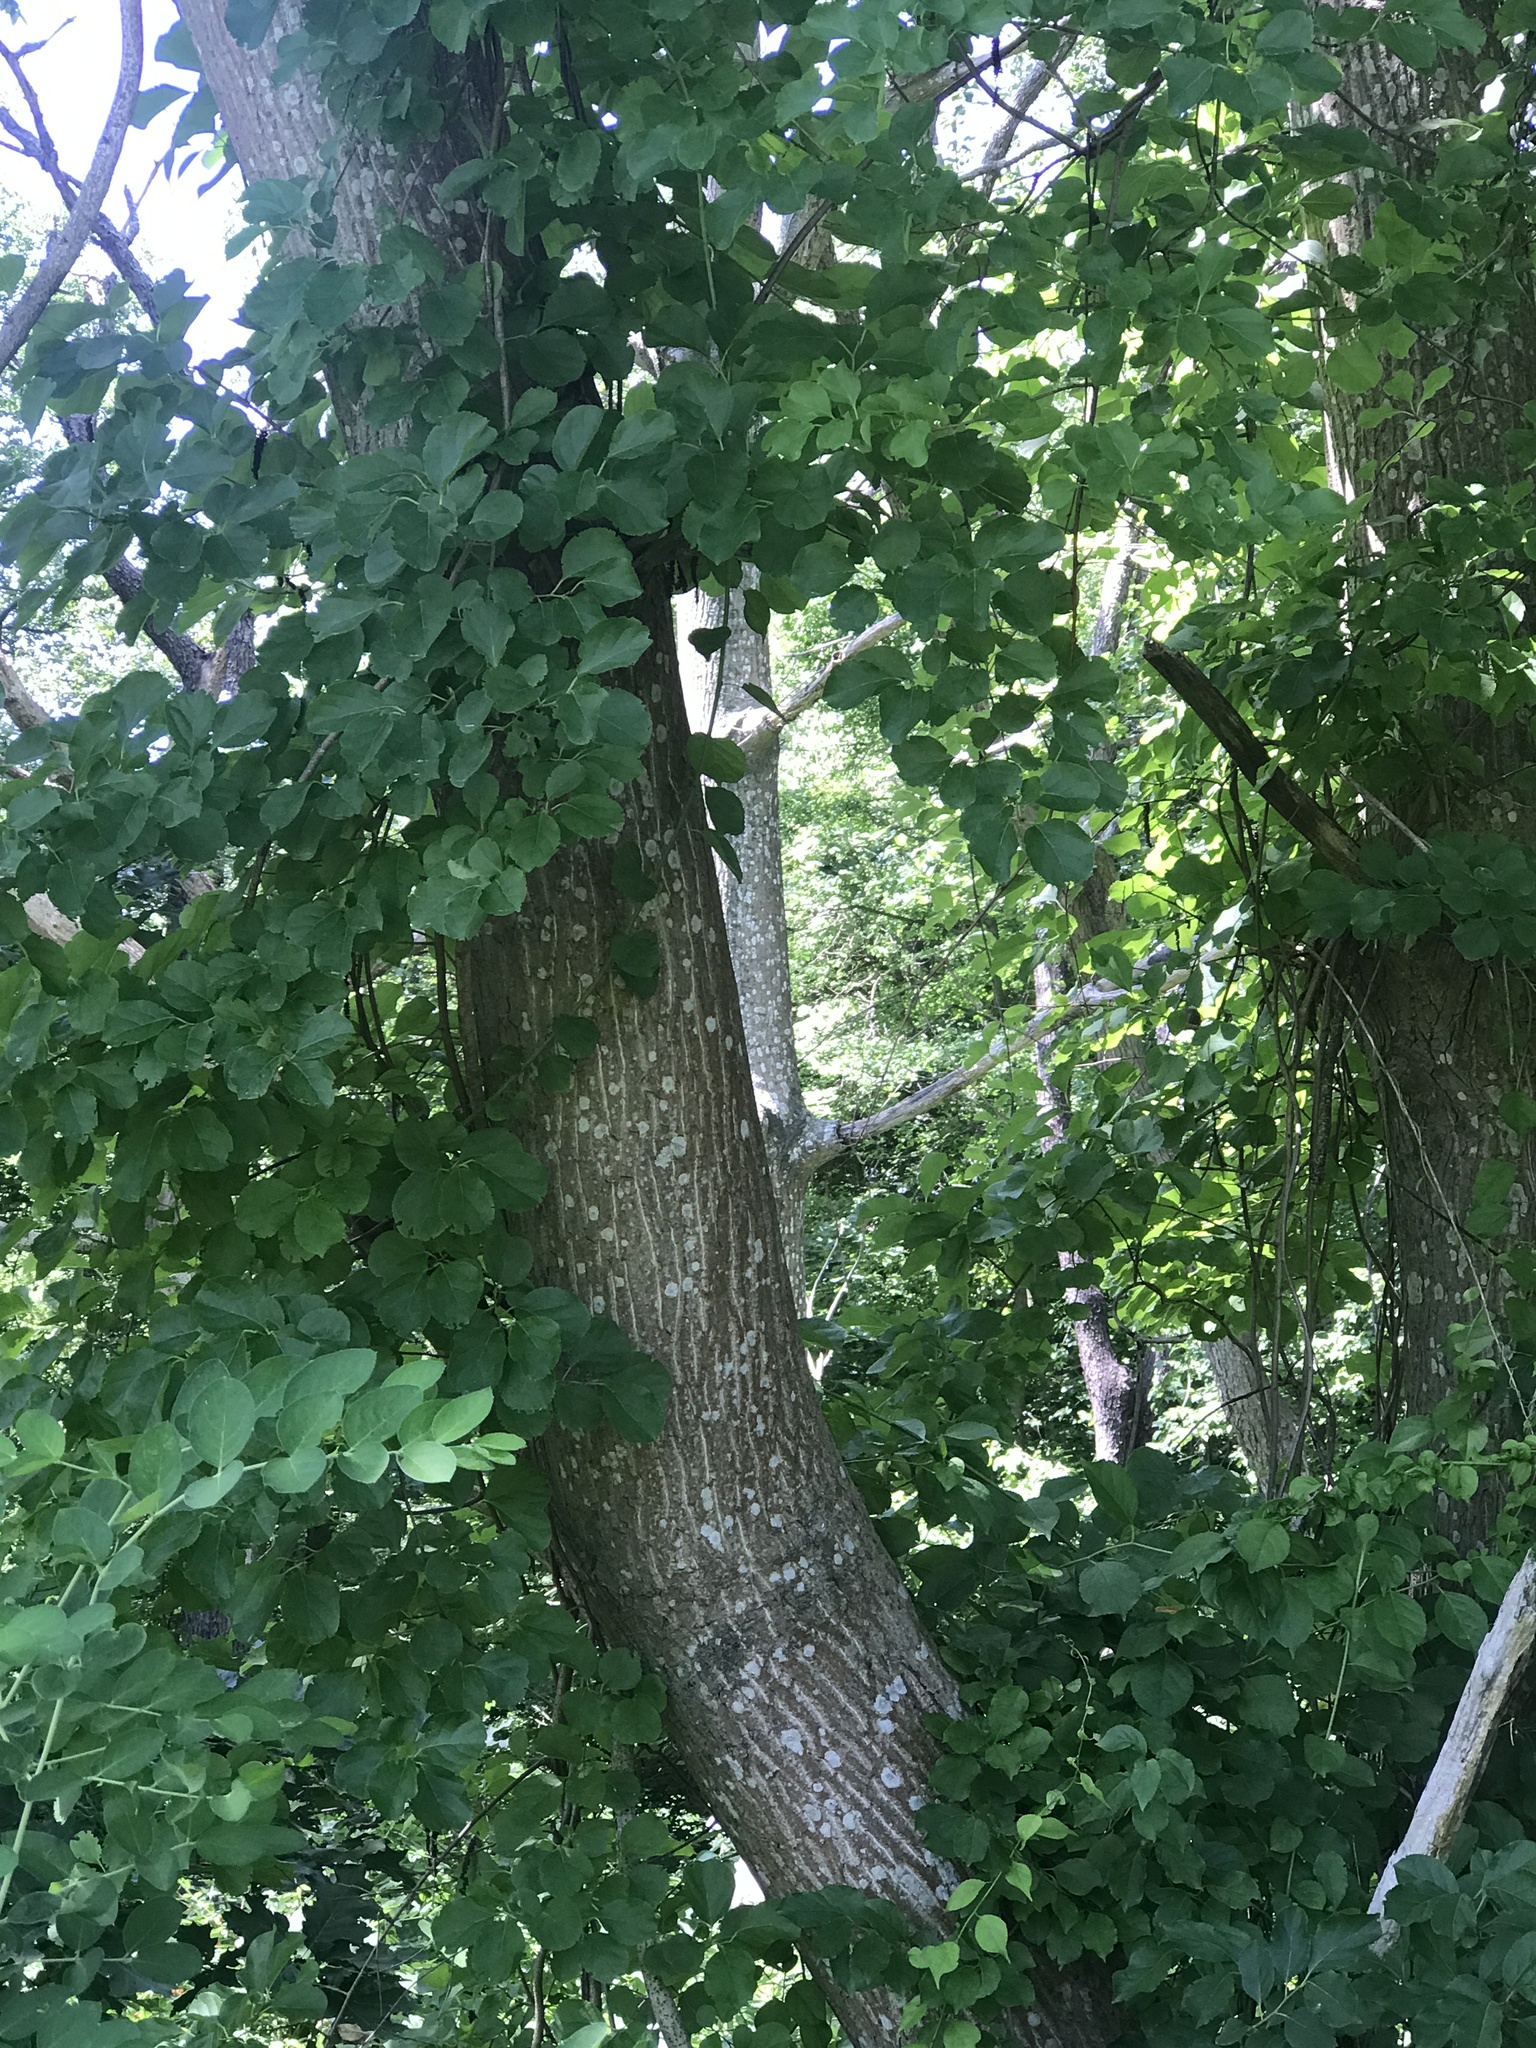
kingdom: Plantae
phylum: Tracheophyta
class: Magnoliopsida
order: Fagales
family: Juglandaceae
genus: Juglans
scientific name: Juglans cinerea
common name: Butternut
